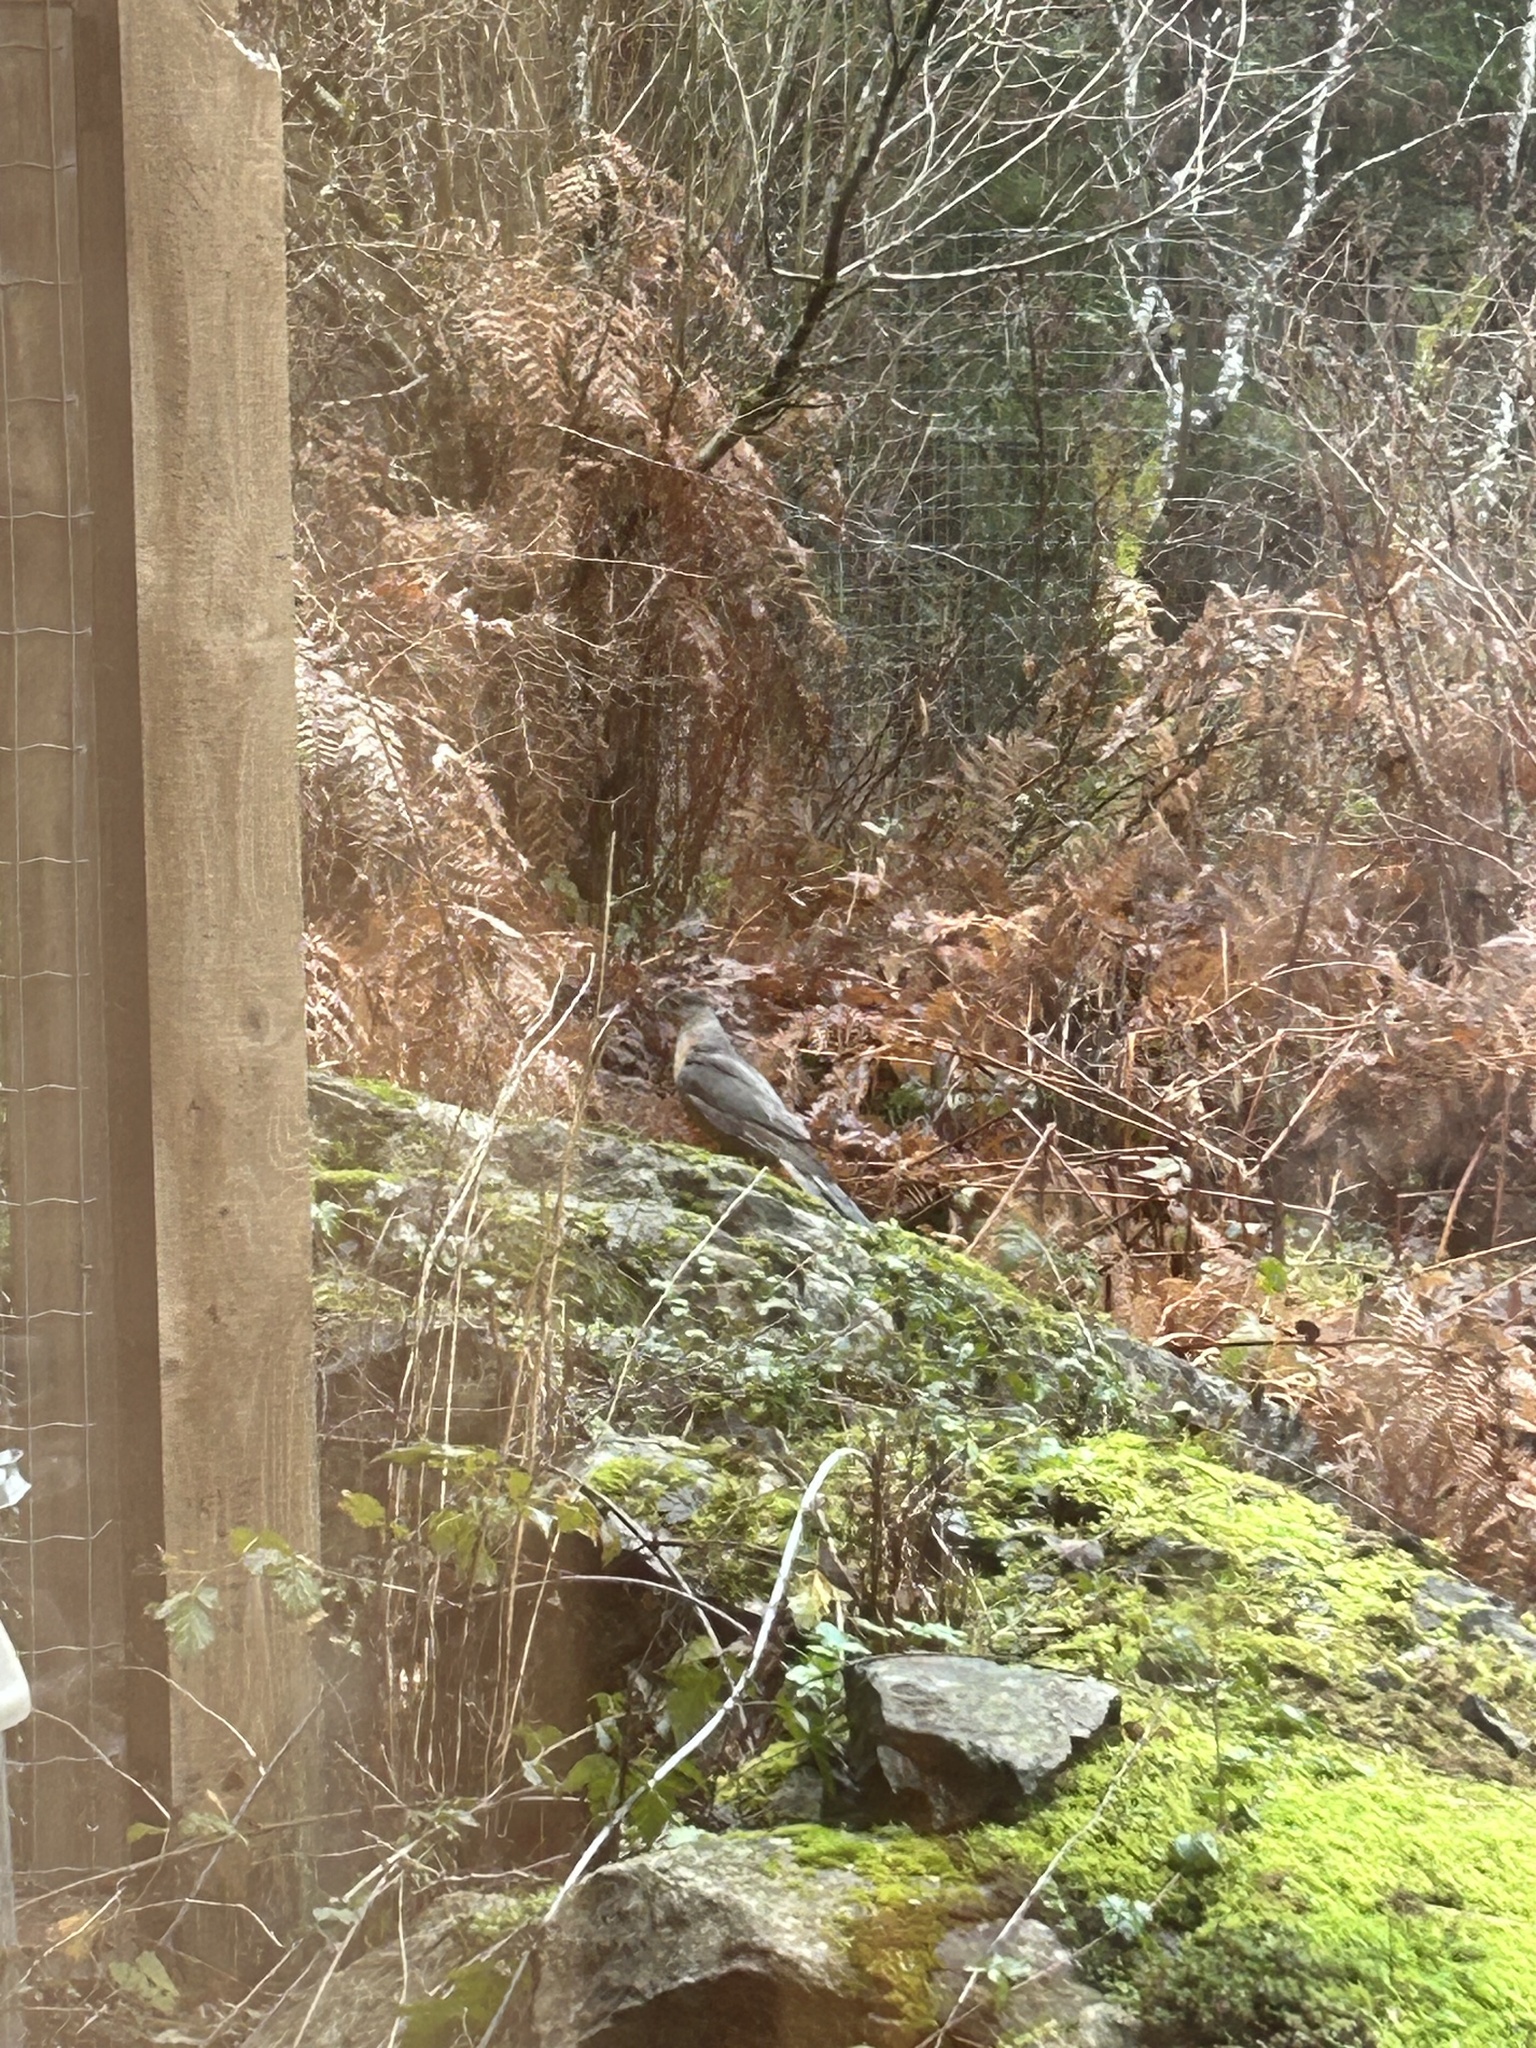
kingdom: Animalia
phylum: Chordata
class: Aves
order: Accipitriformes
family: Accipitridae
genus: Accipiter
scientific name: Accipiter cooperii
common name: Cooper's hawk
